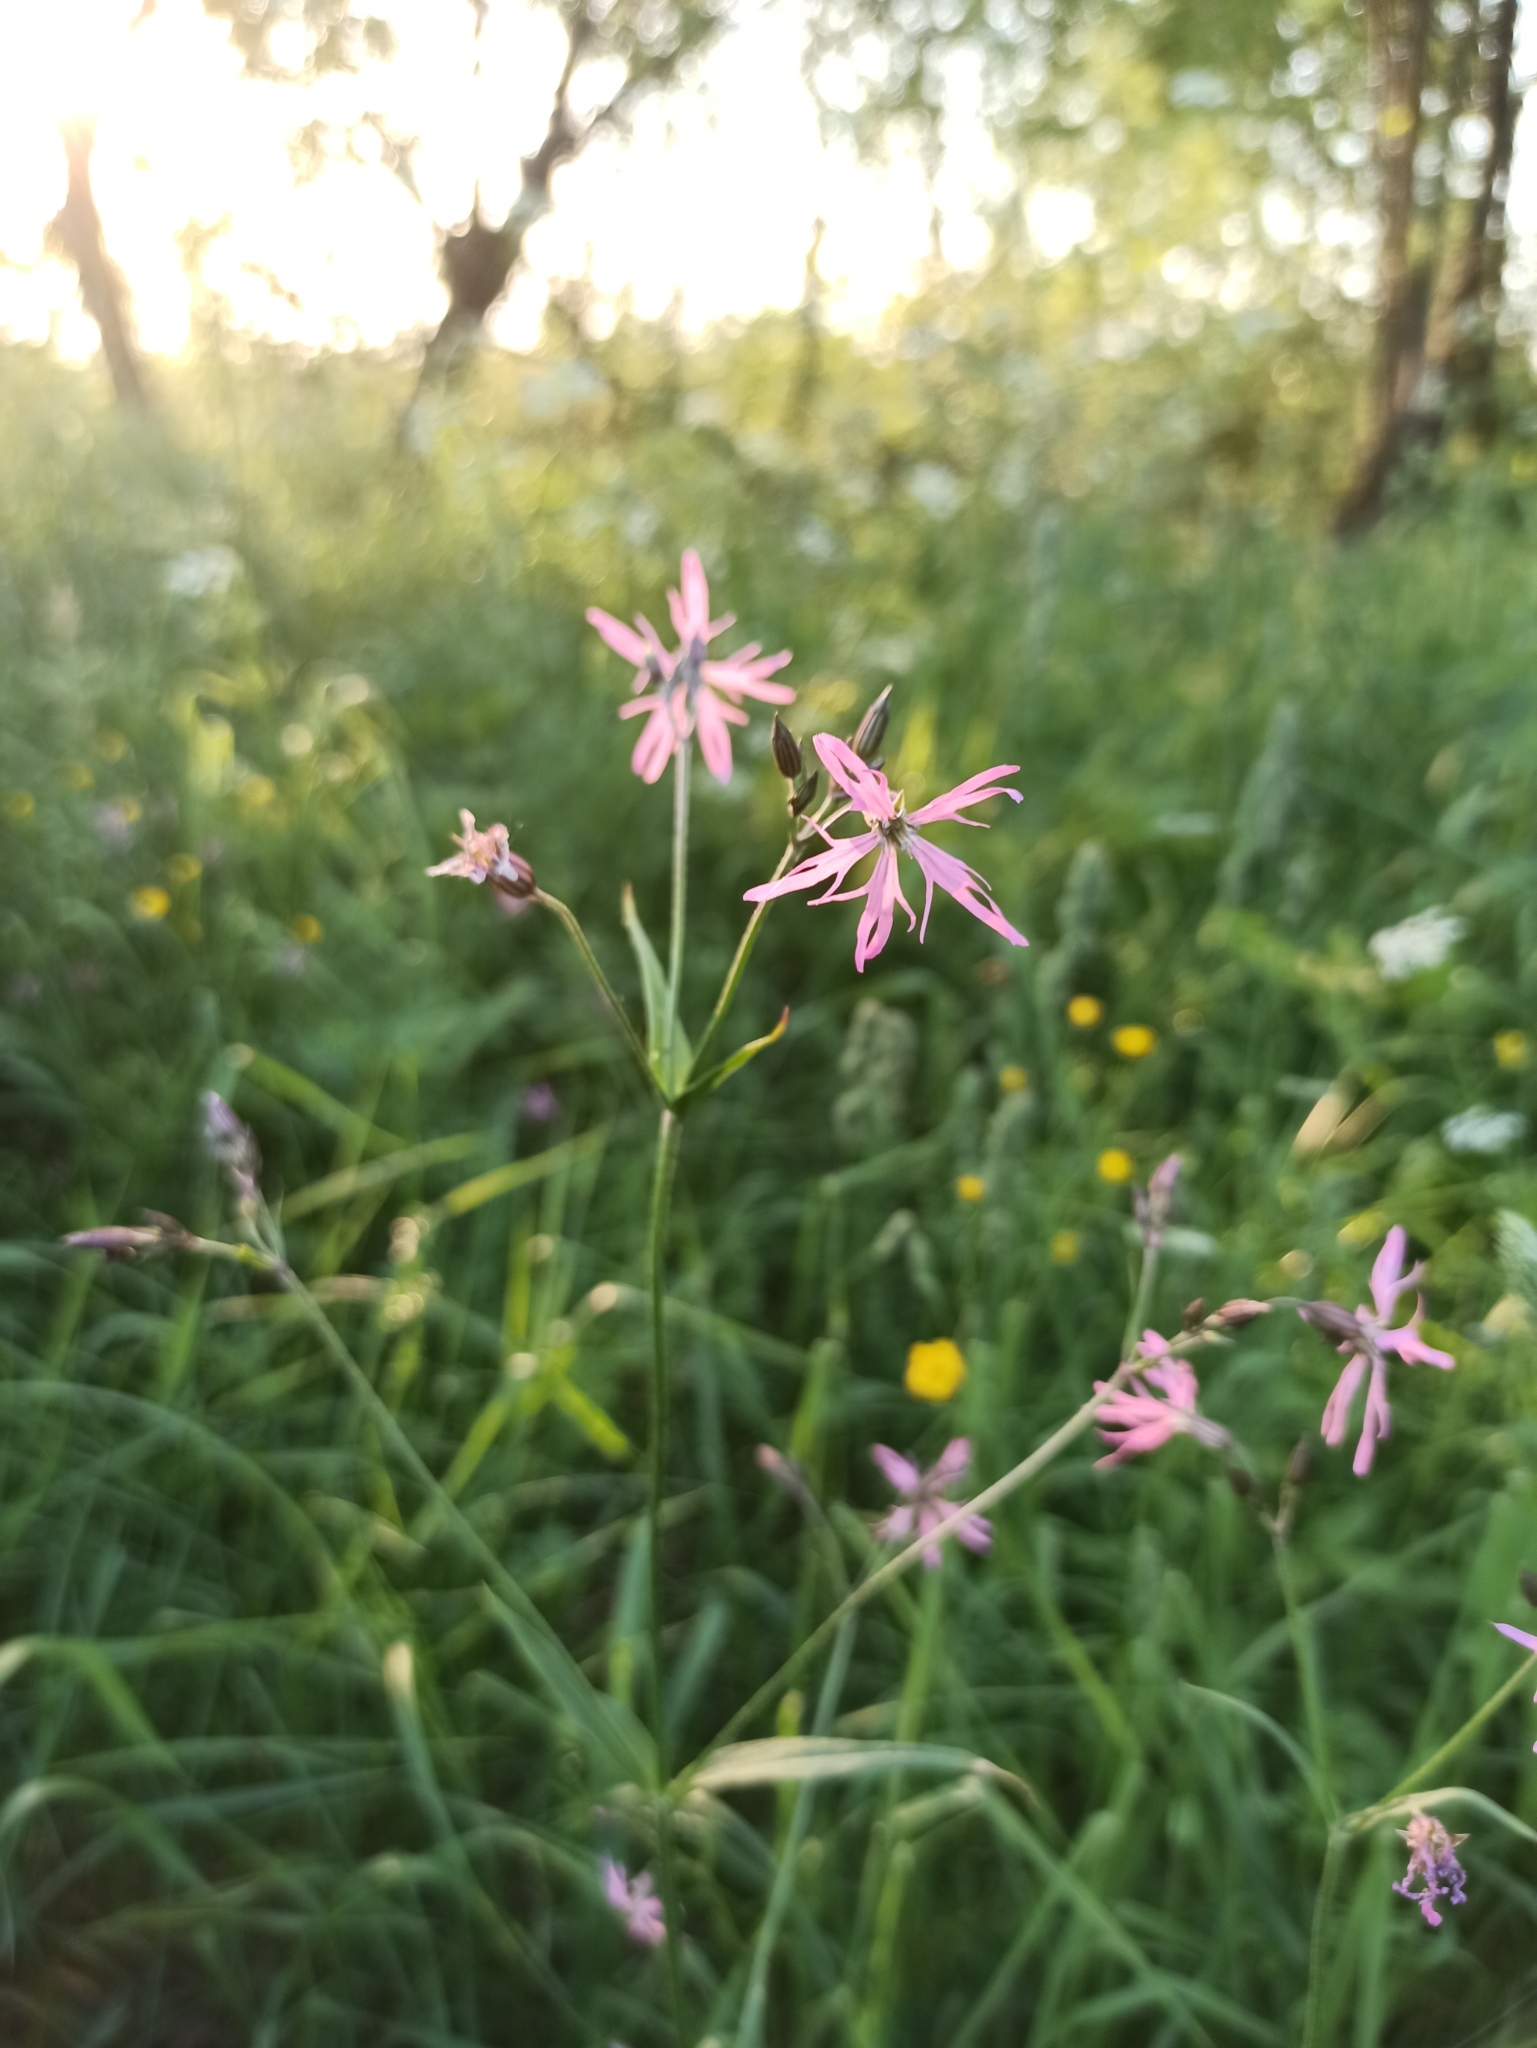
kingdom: Plantae
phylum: Tracheophyta
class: Magnoliopsida
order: Caryophyllales
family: Caryophyllaceae
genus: Silene
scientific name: Silene flos-cuculi
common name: Ragged-robin
